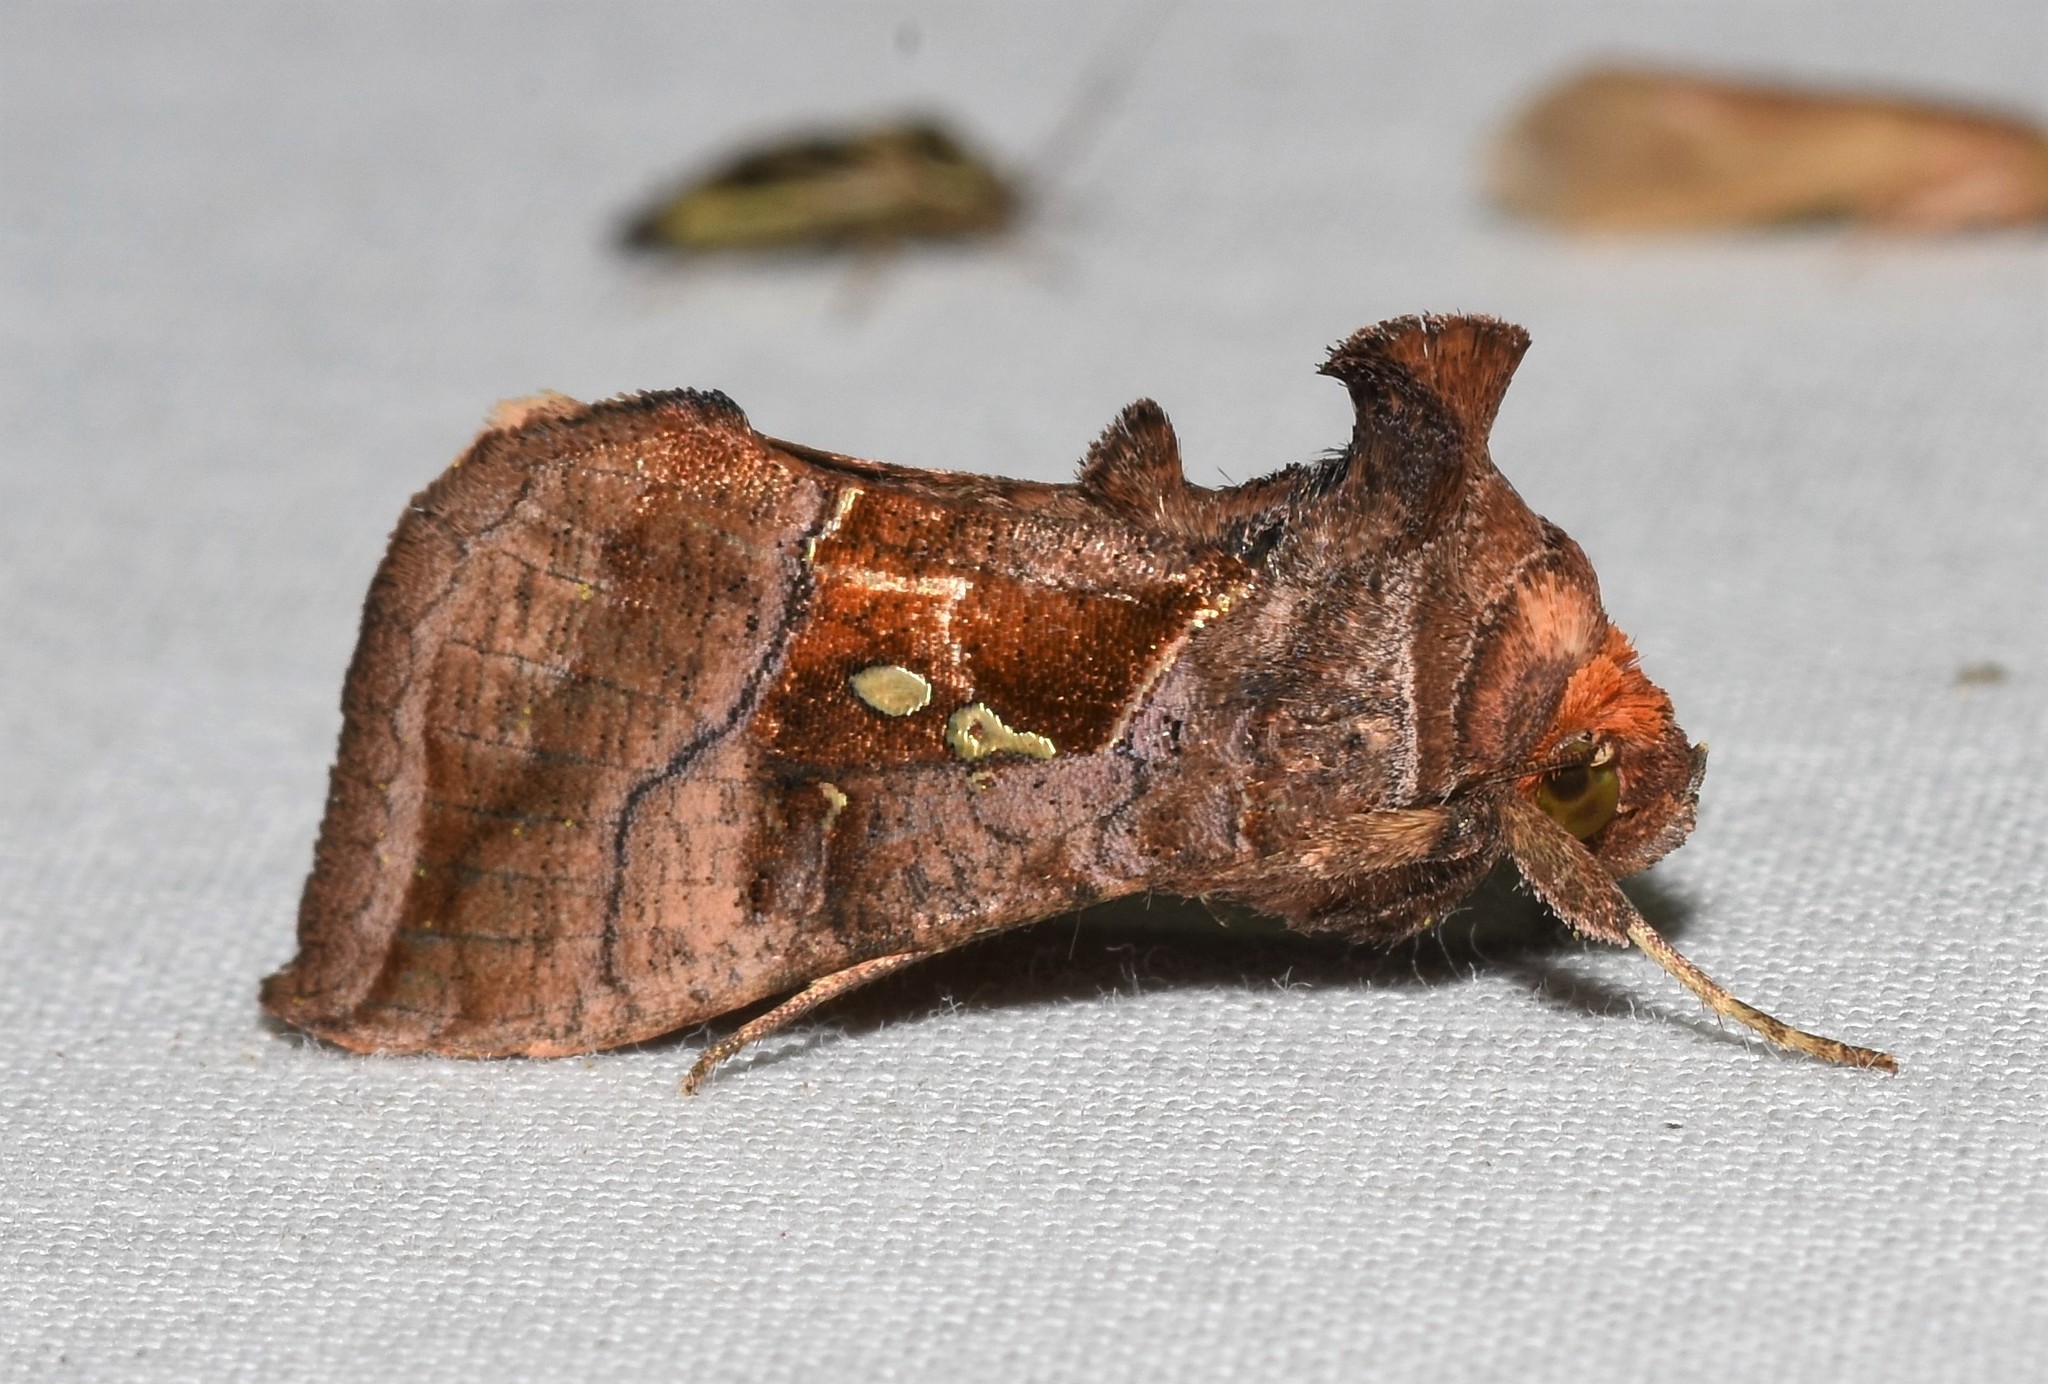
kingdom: Animalia
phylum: Arthropoda
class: Insecta
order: Lepidoptera
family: Noctuidae
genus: Enigmogramma
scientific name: Enigmogramma basigera
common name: Pink-washed looper moth
